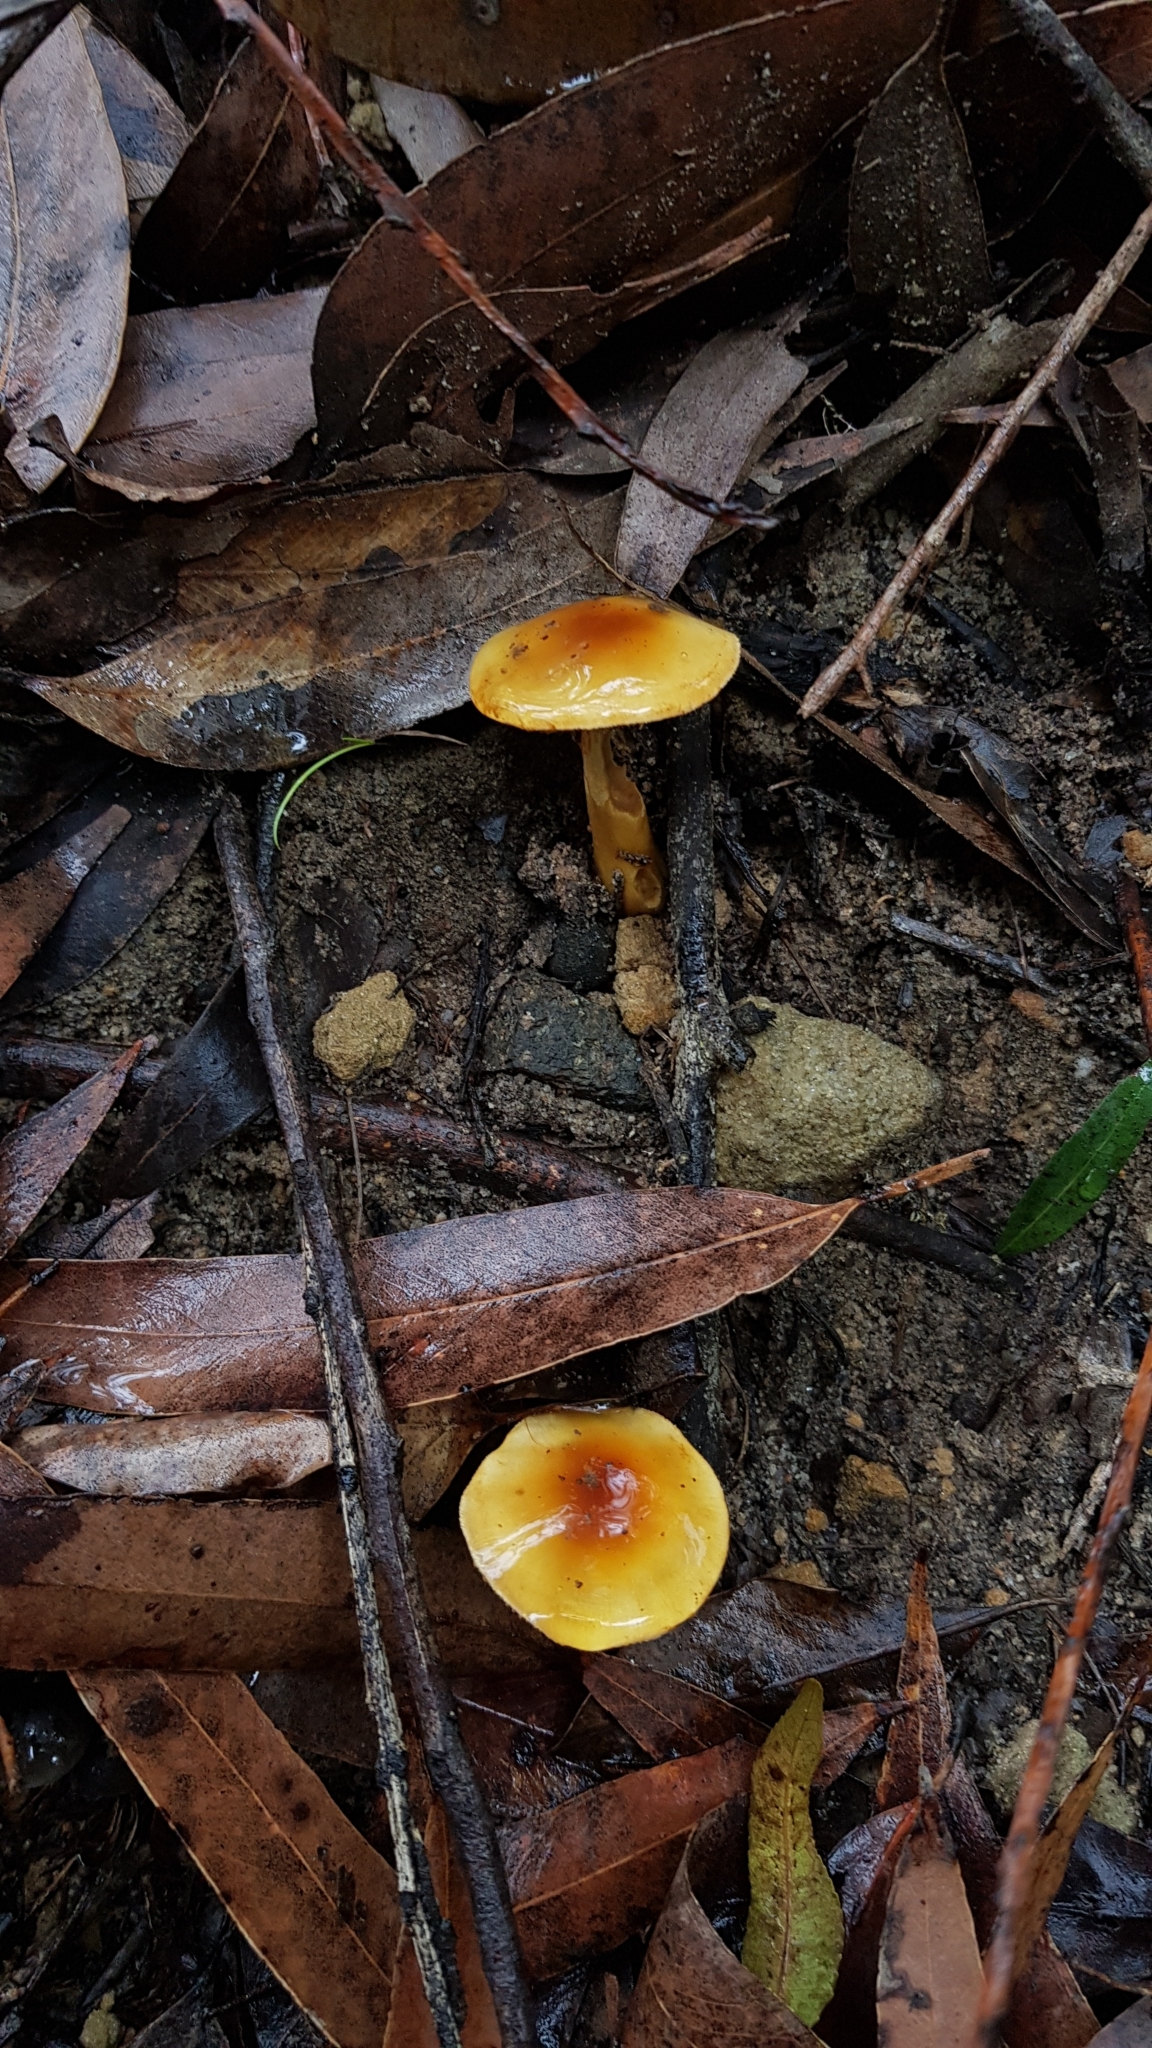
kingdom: Fungi
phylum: Basidiomycota
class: Agaricomycetes
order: Agaricales
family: Cortinariaceae
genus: Cortinarius
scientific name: Cortinarius sinapicolor
